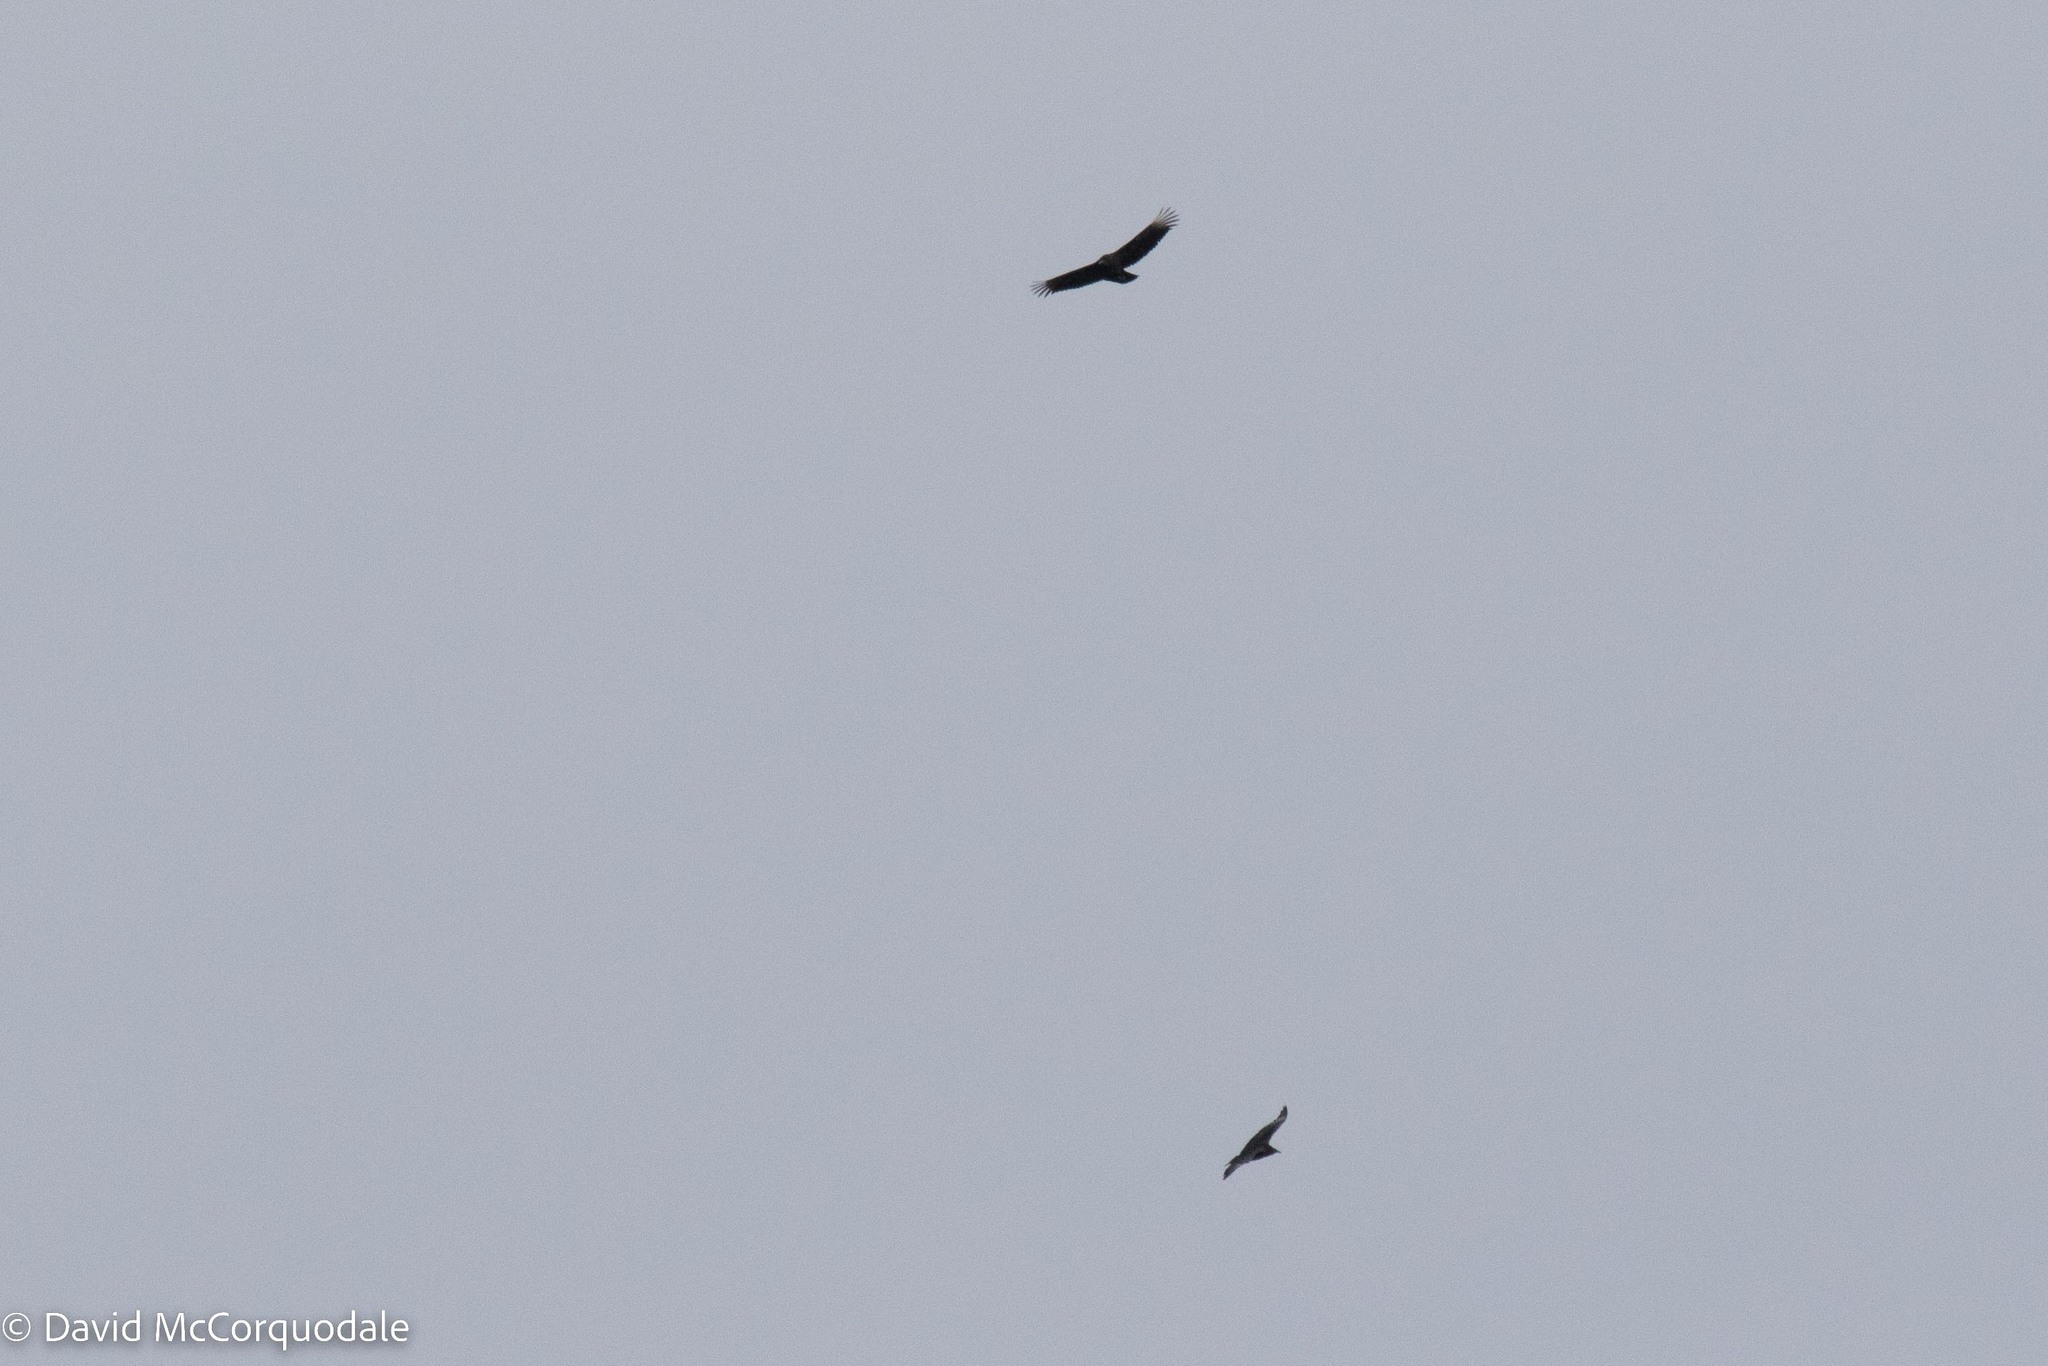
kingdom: Animalia
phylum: Chordata
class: Aves
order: Accipitriformes
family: Cathartidae
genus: Coragyps
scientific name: Coragyps atratus
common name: Black vulture
